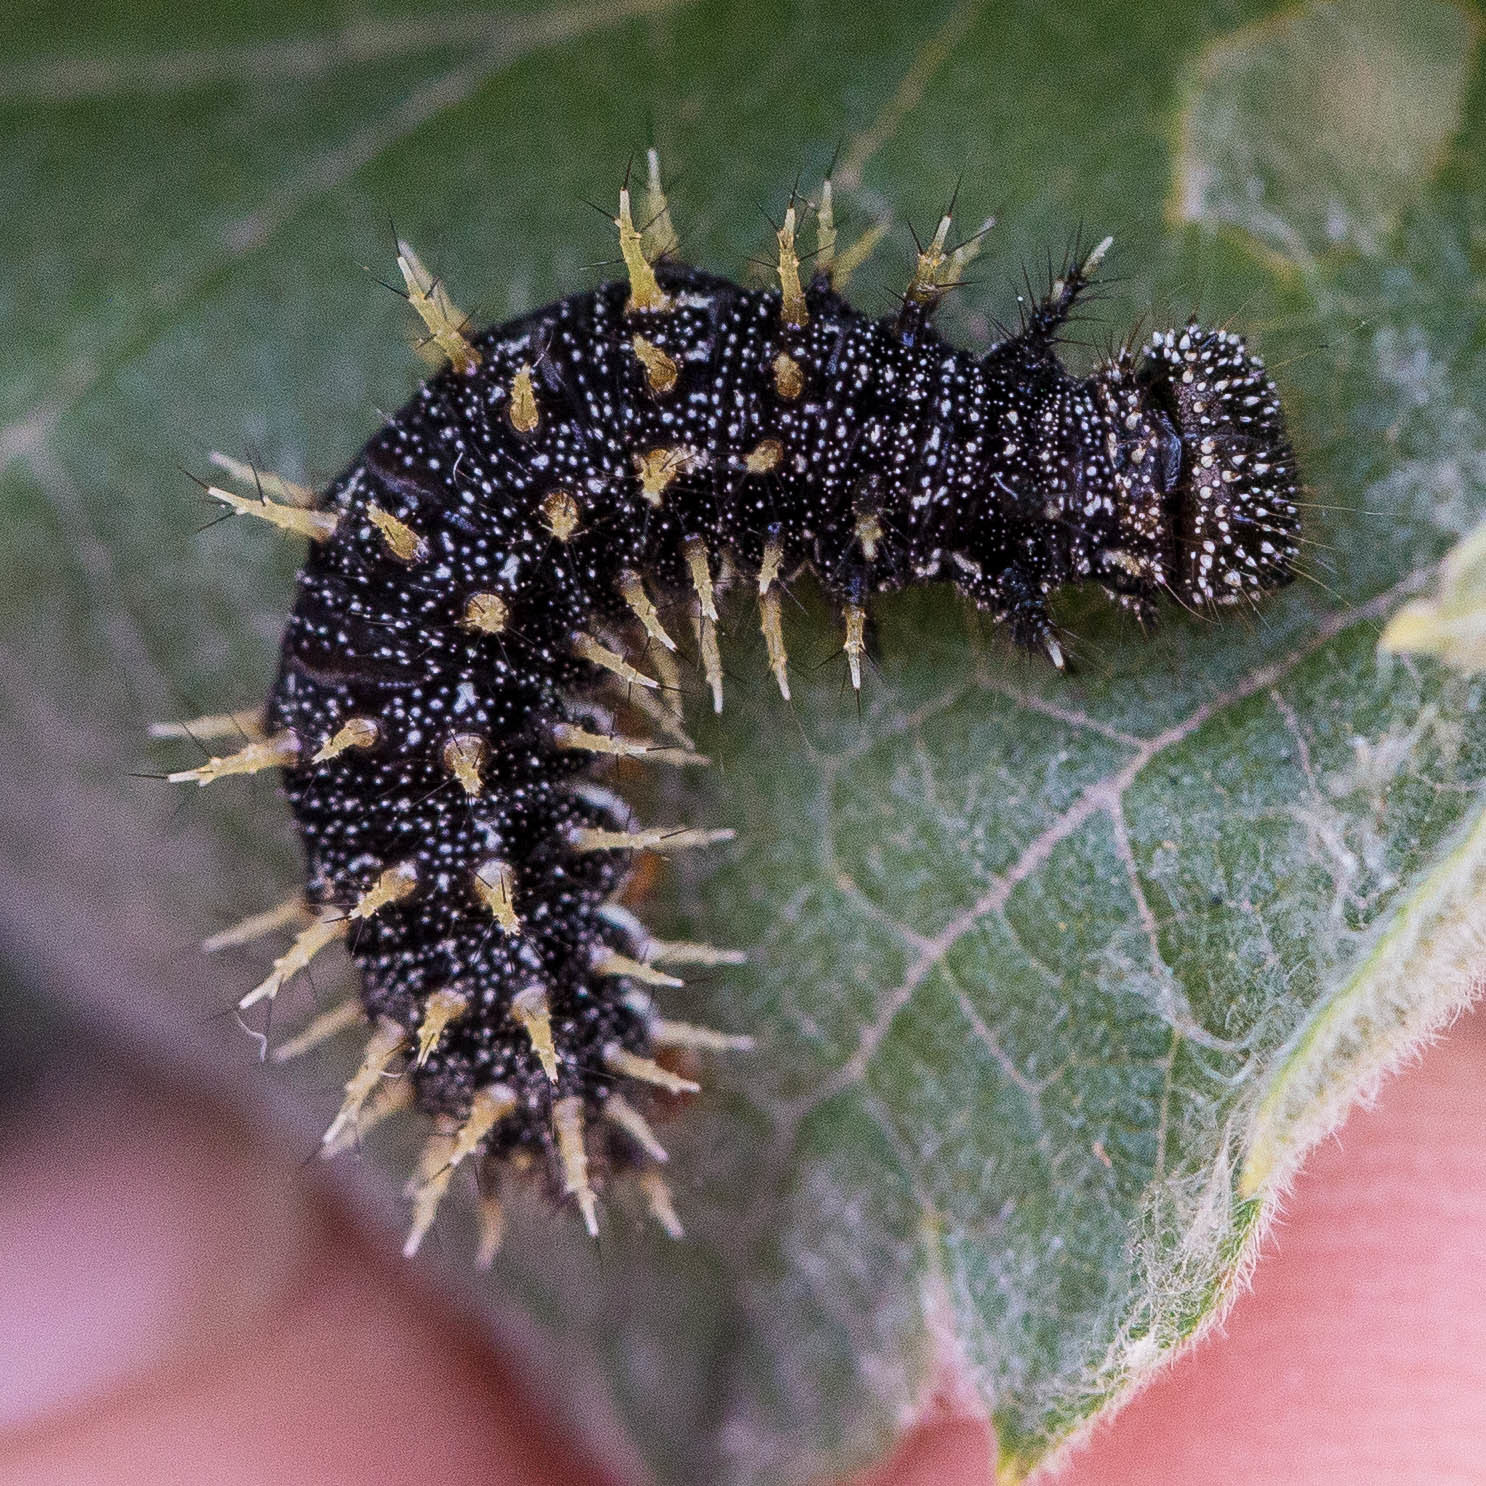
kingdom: Animalia
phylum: Arthropoda
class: Insecta
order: Lepidoptera
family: Nymphalidae
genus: Vanessa
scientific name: Vanessa atalanta
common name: Red admiral
